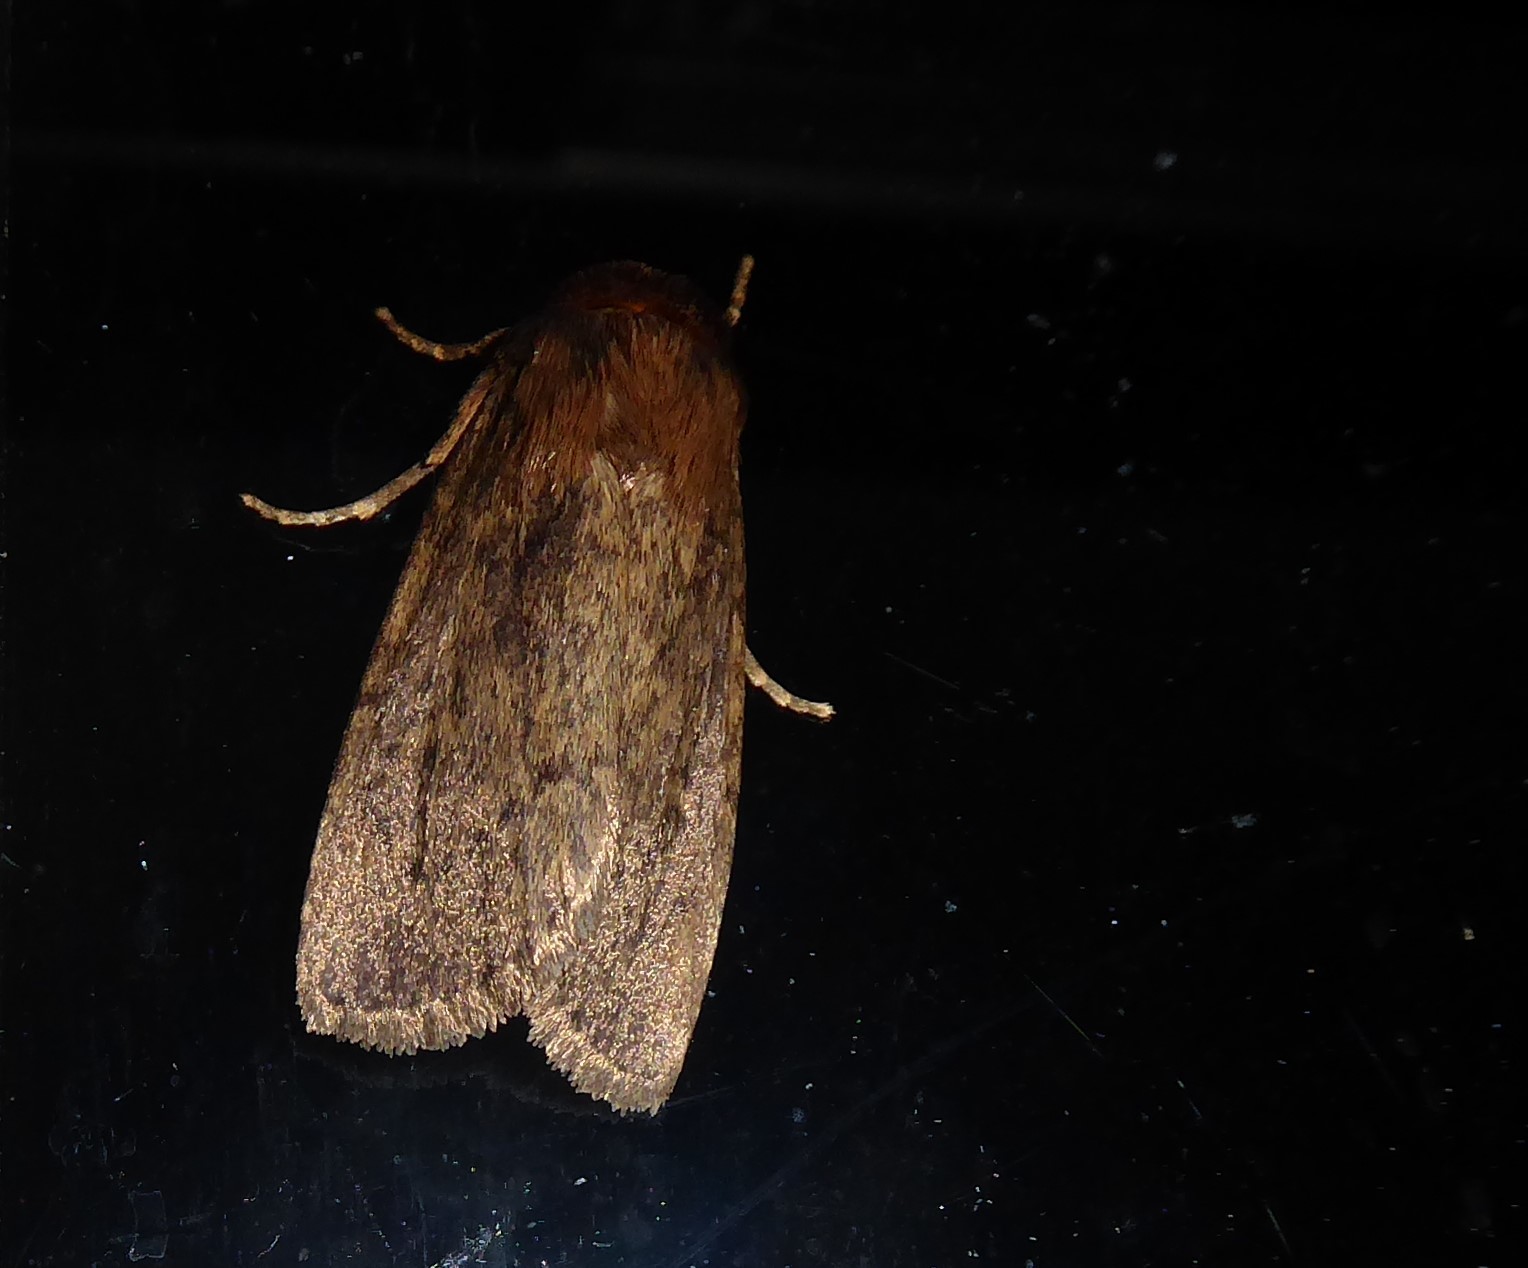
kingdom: Animalia
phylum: Arthropoda
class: Insecta
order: Lepidoptera
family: Noctuidae
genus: Bityla
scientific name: Bityla defigurata
